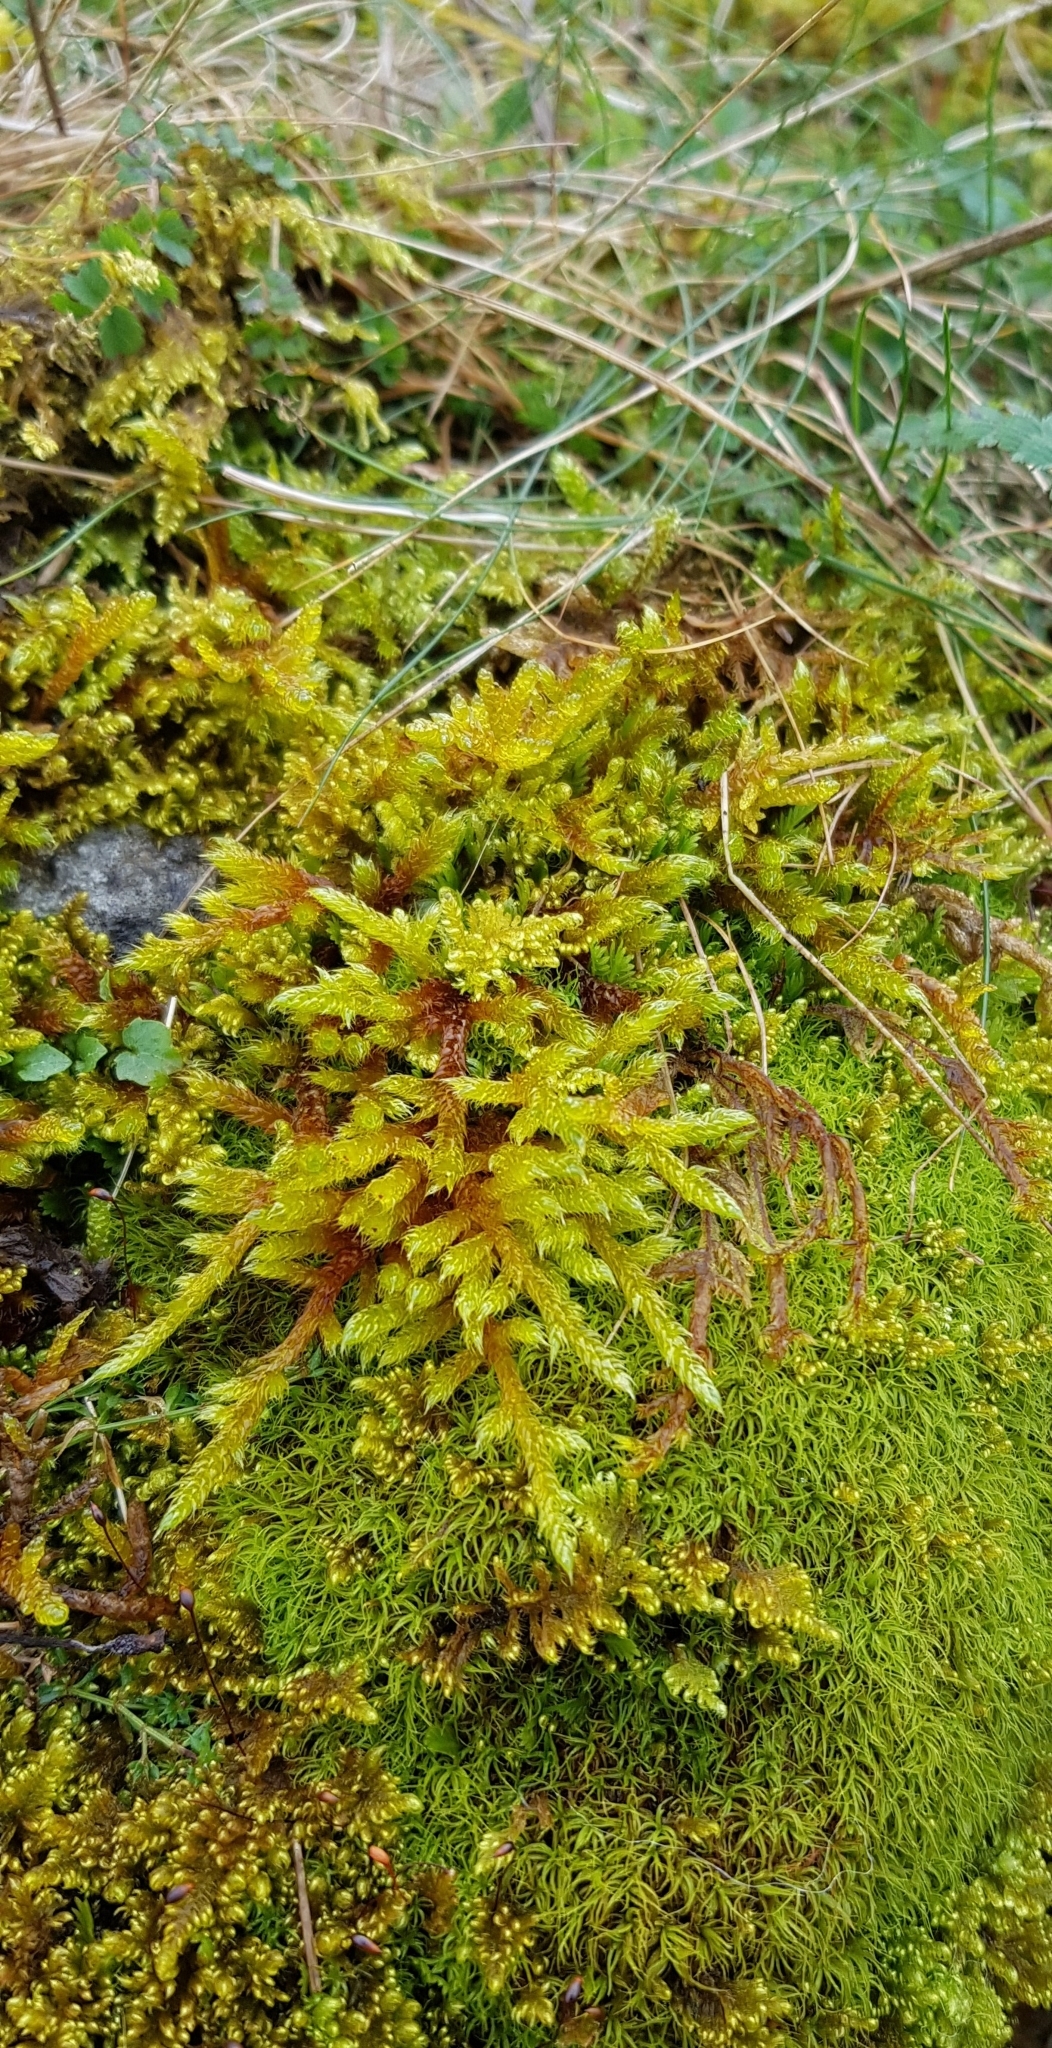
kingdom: Plantae
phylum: Bryophyta
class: Bryopsida
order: Hypnales
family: Hypnaceae
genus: Hypnum
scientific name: Hypnum cupressiforme
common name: Cypress-leaved plait-moss
